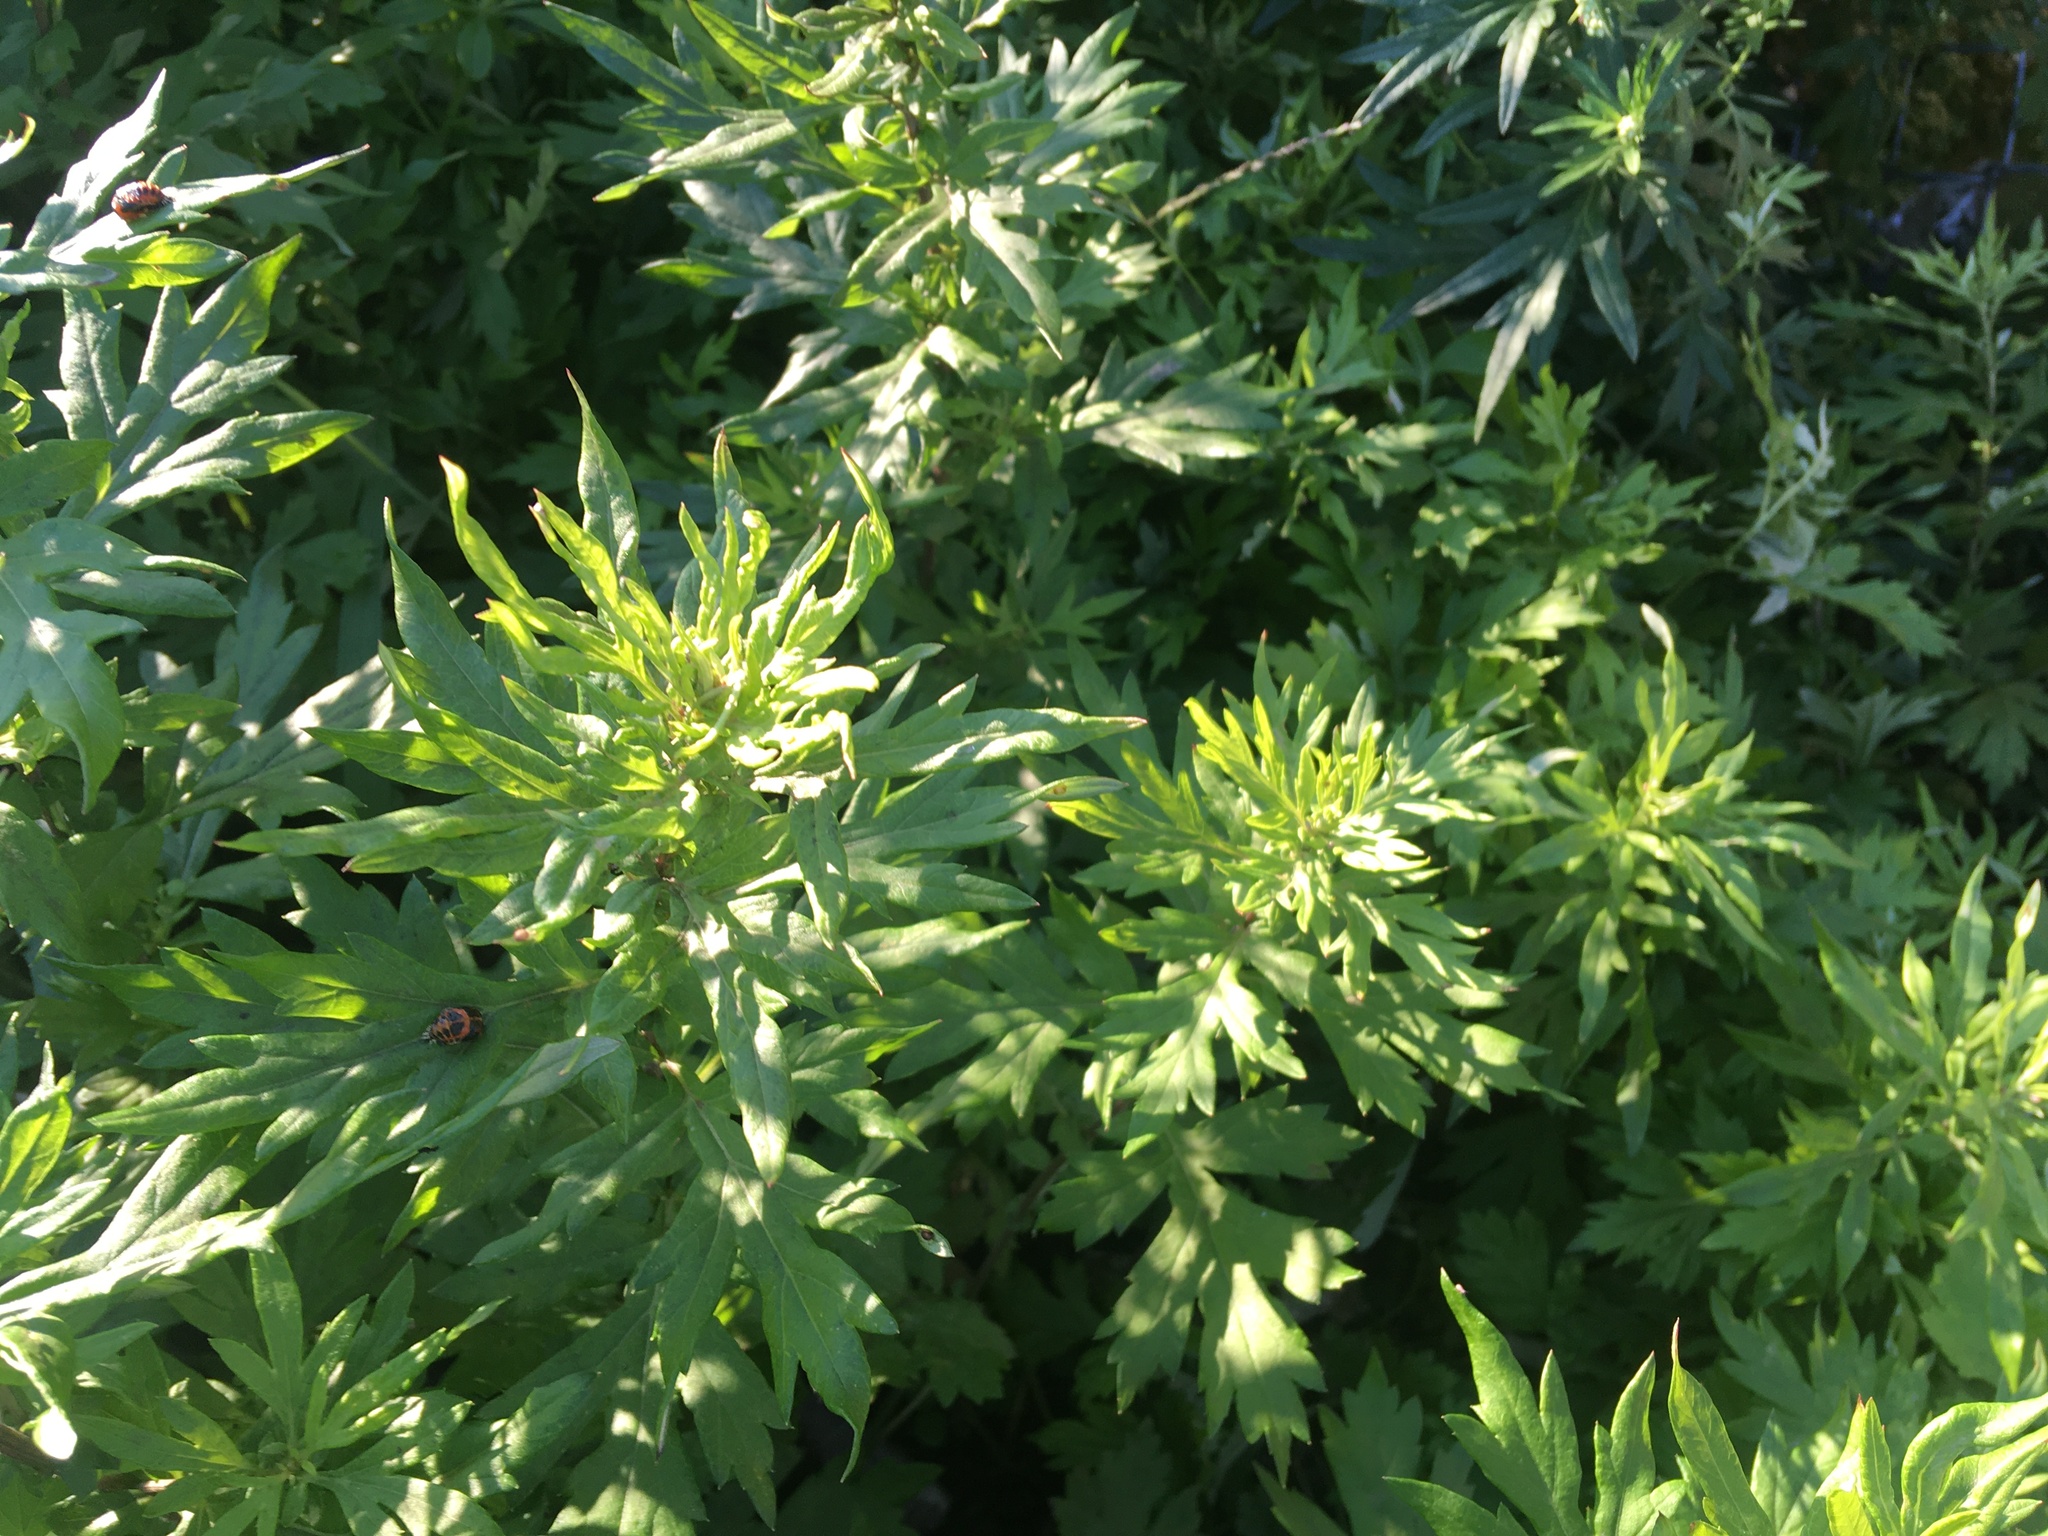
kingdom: Plantae
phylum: Tracheophyta
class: Magnoliopsida
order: Asterales
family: Asteraceae
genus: Artemisia
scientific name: Artemisia vulgaris
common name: Mugwort
